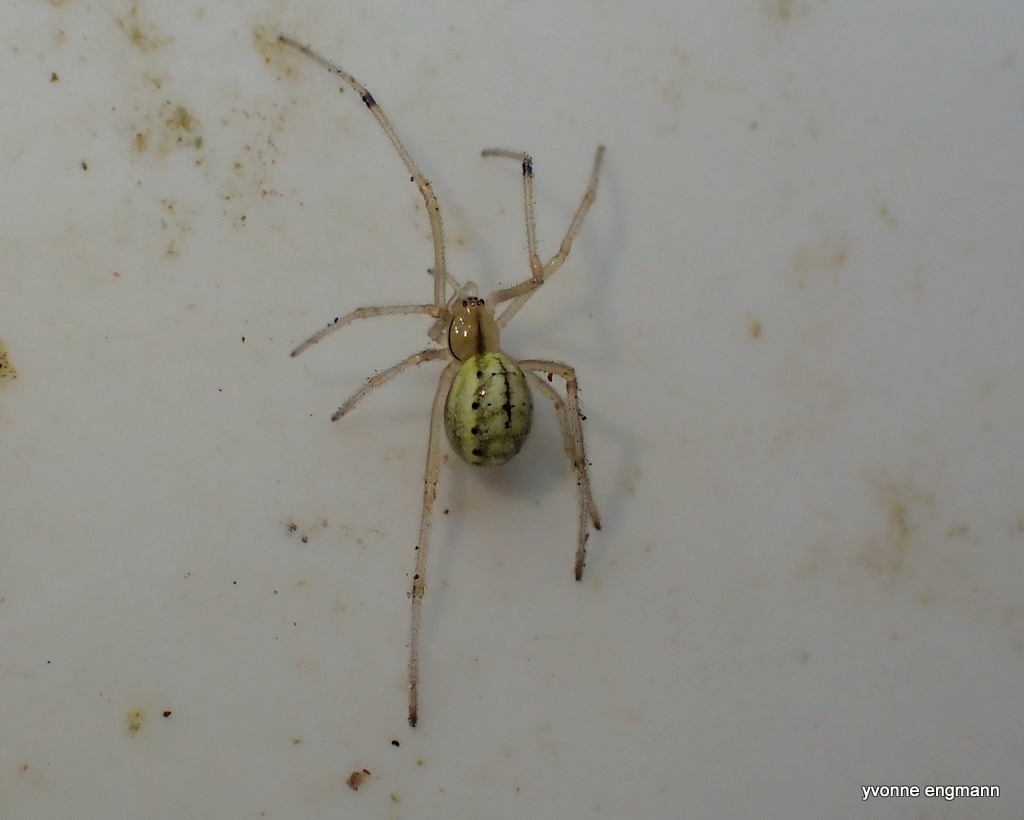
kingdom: Animalia
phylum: Arthropoda
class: Arachnida
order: Araneae
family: Theridiidae
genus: Enoplognatha
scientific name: Enoplognatha ovata
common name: Common candy-striped spider
